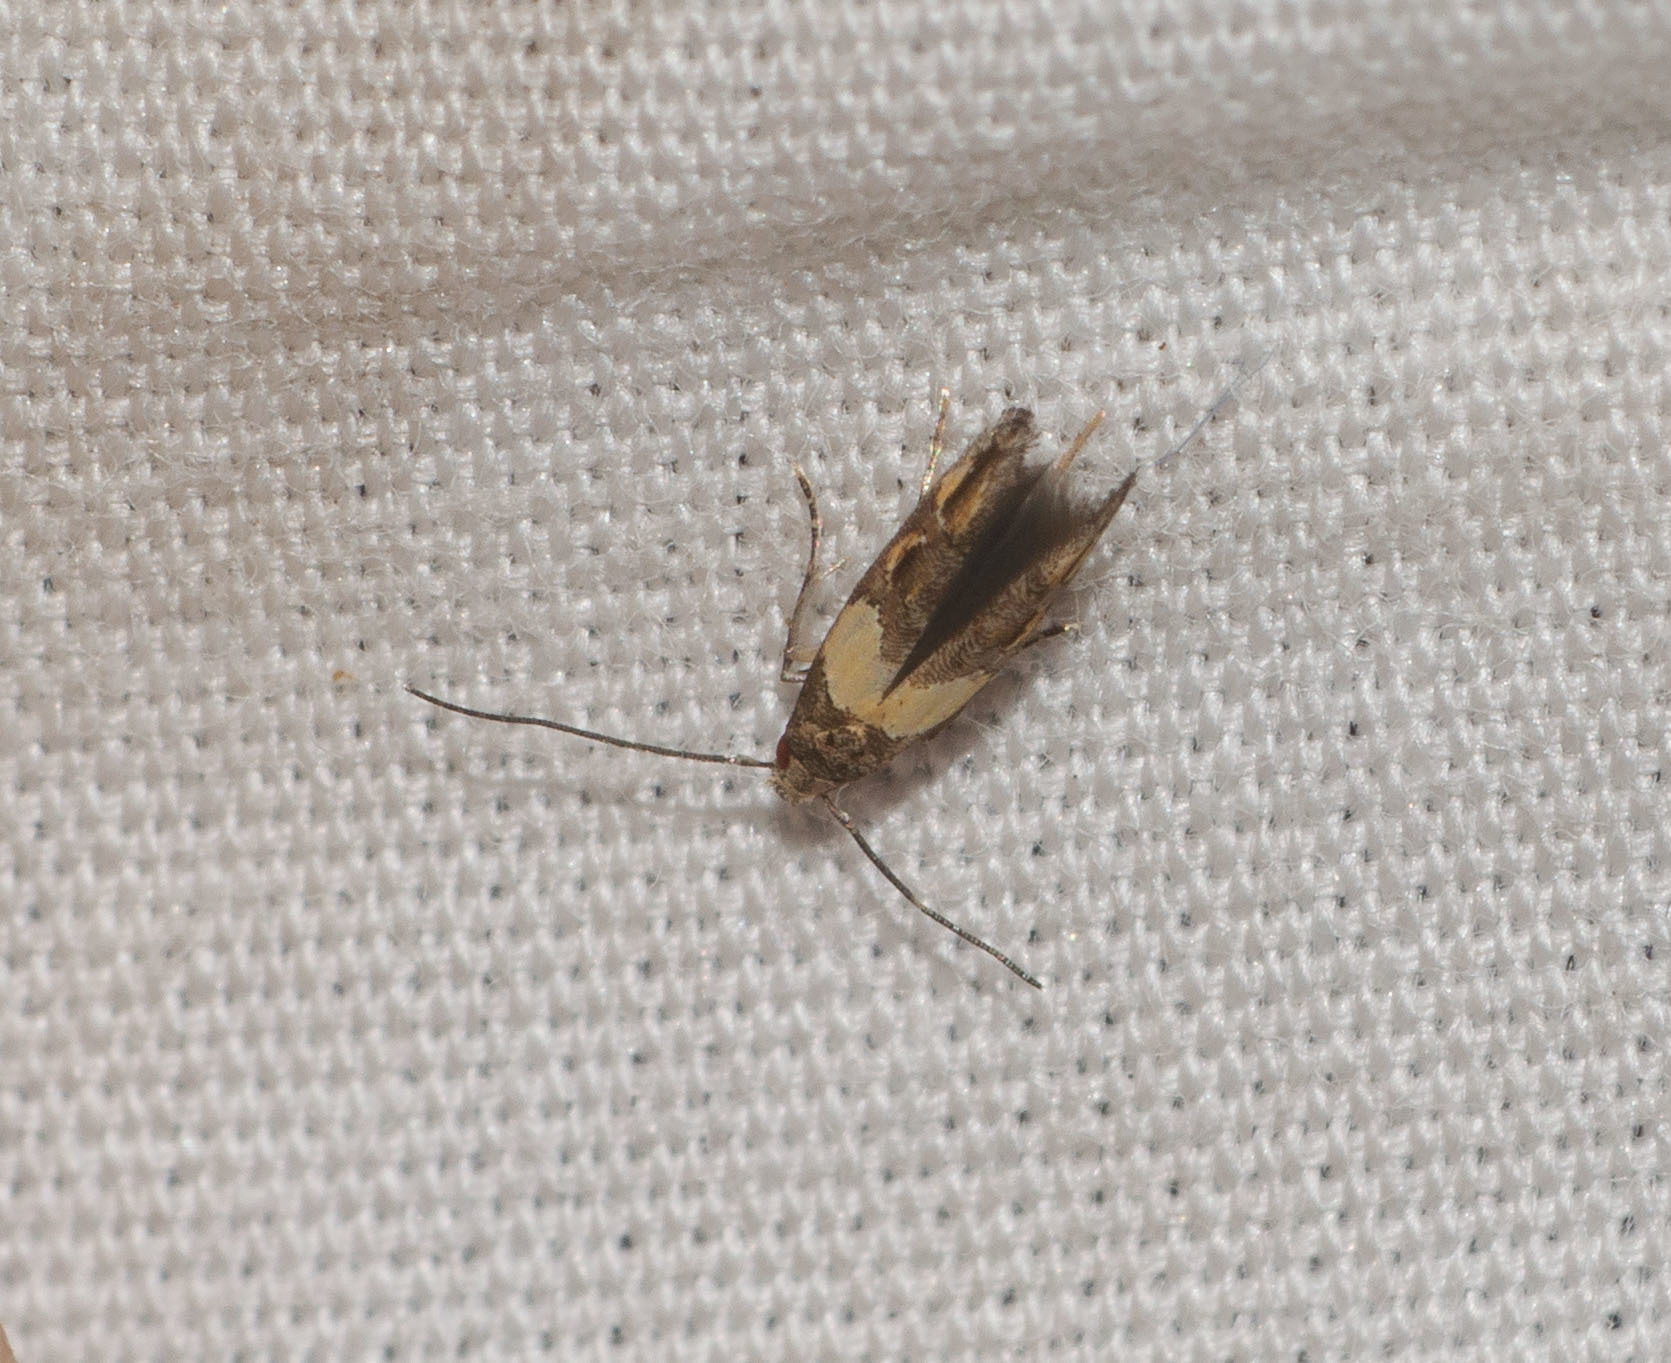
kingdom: Animalia
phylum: Arthropoda
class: Insecta
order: Lepidoptera
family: Momphidae
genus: Mompha
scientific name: Mompha trithalama
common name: Moth
